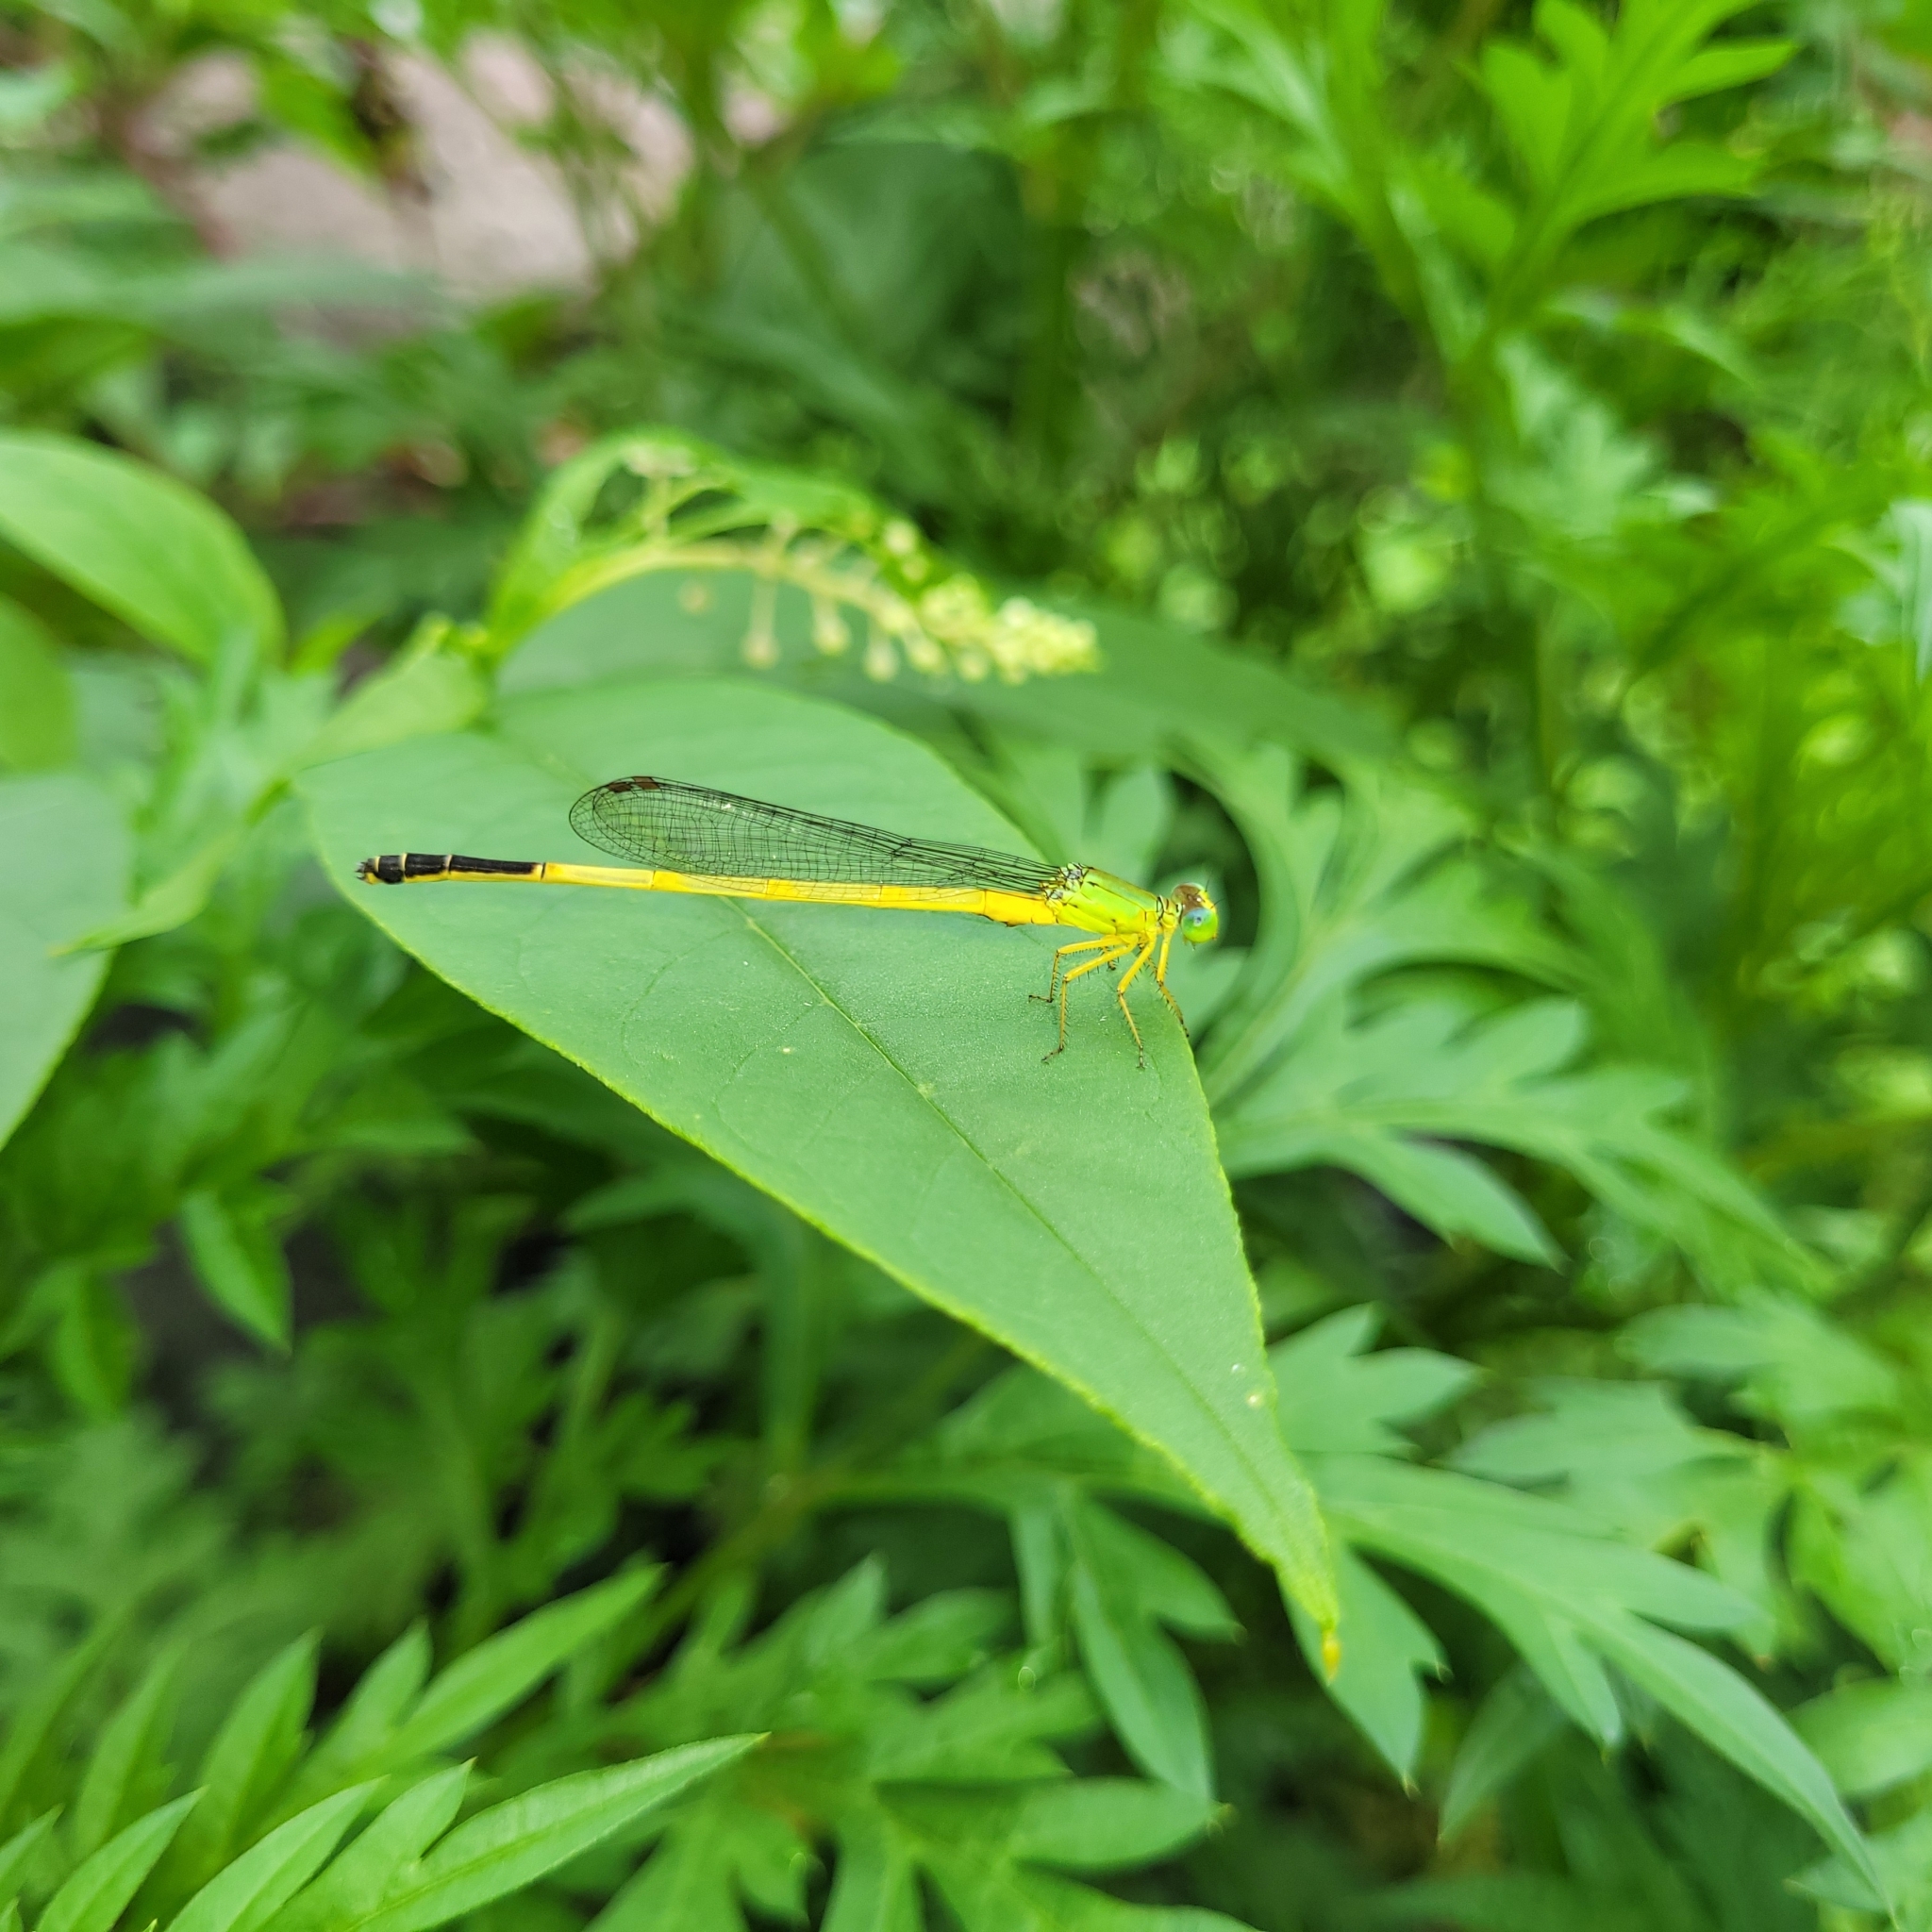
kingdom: Animalia
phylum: Arthropoda
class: Insecta
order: Odonata
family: Coenagrionidae
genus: Ceriagrion
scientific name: Ceriagrion fallax
